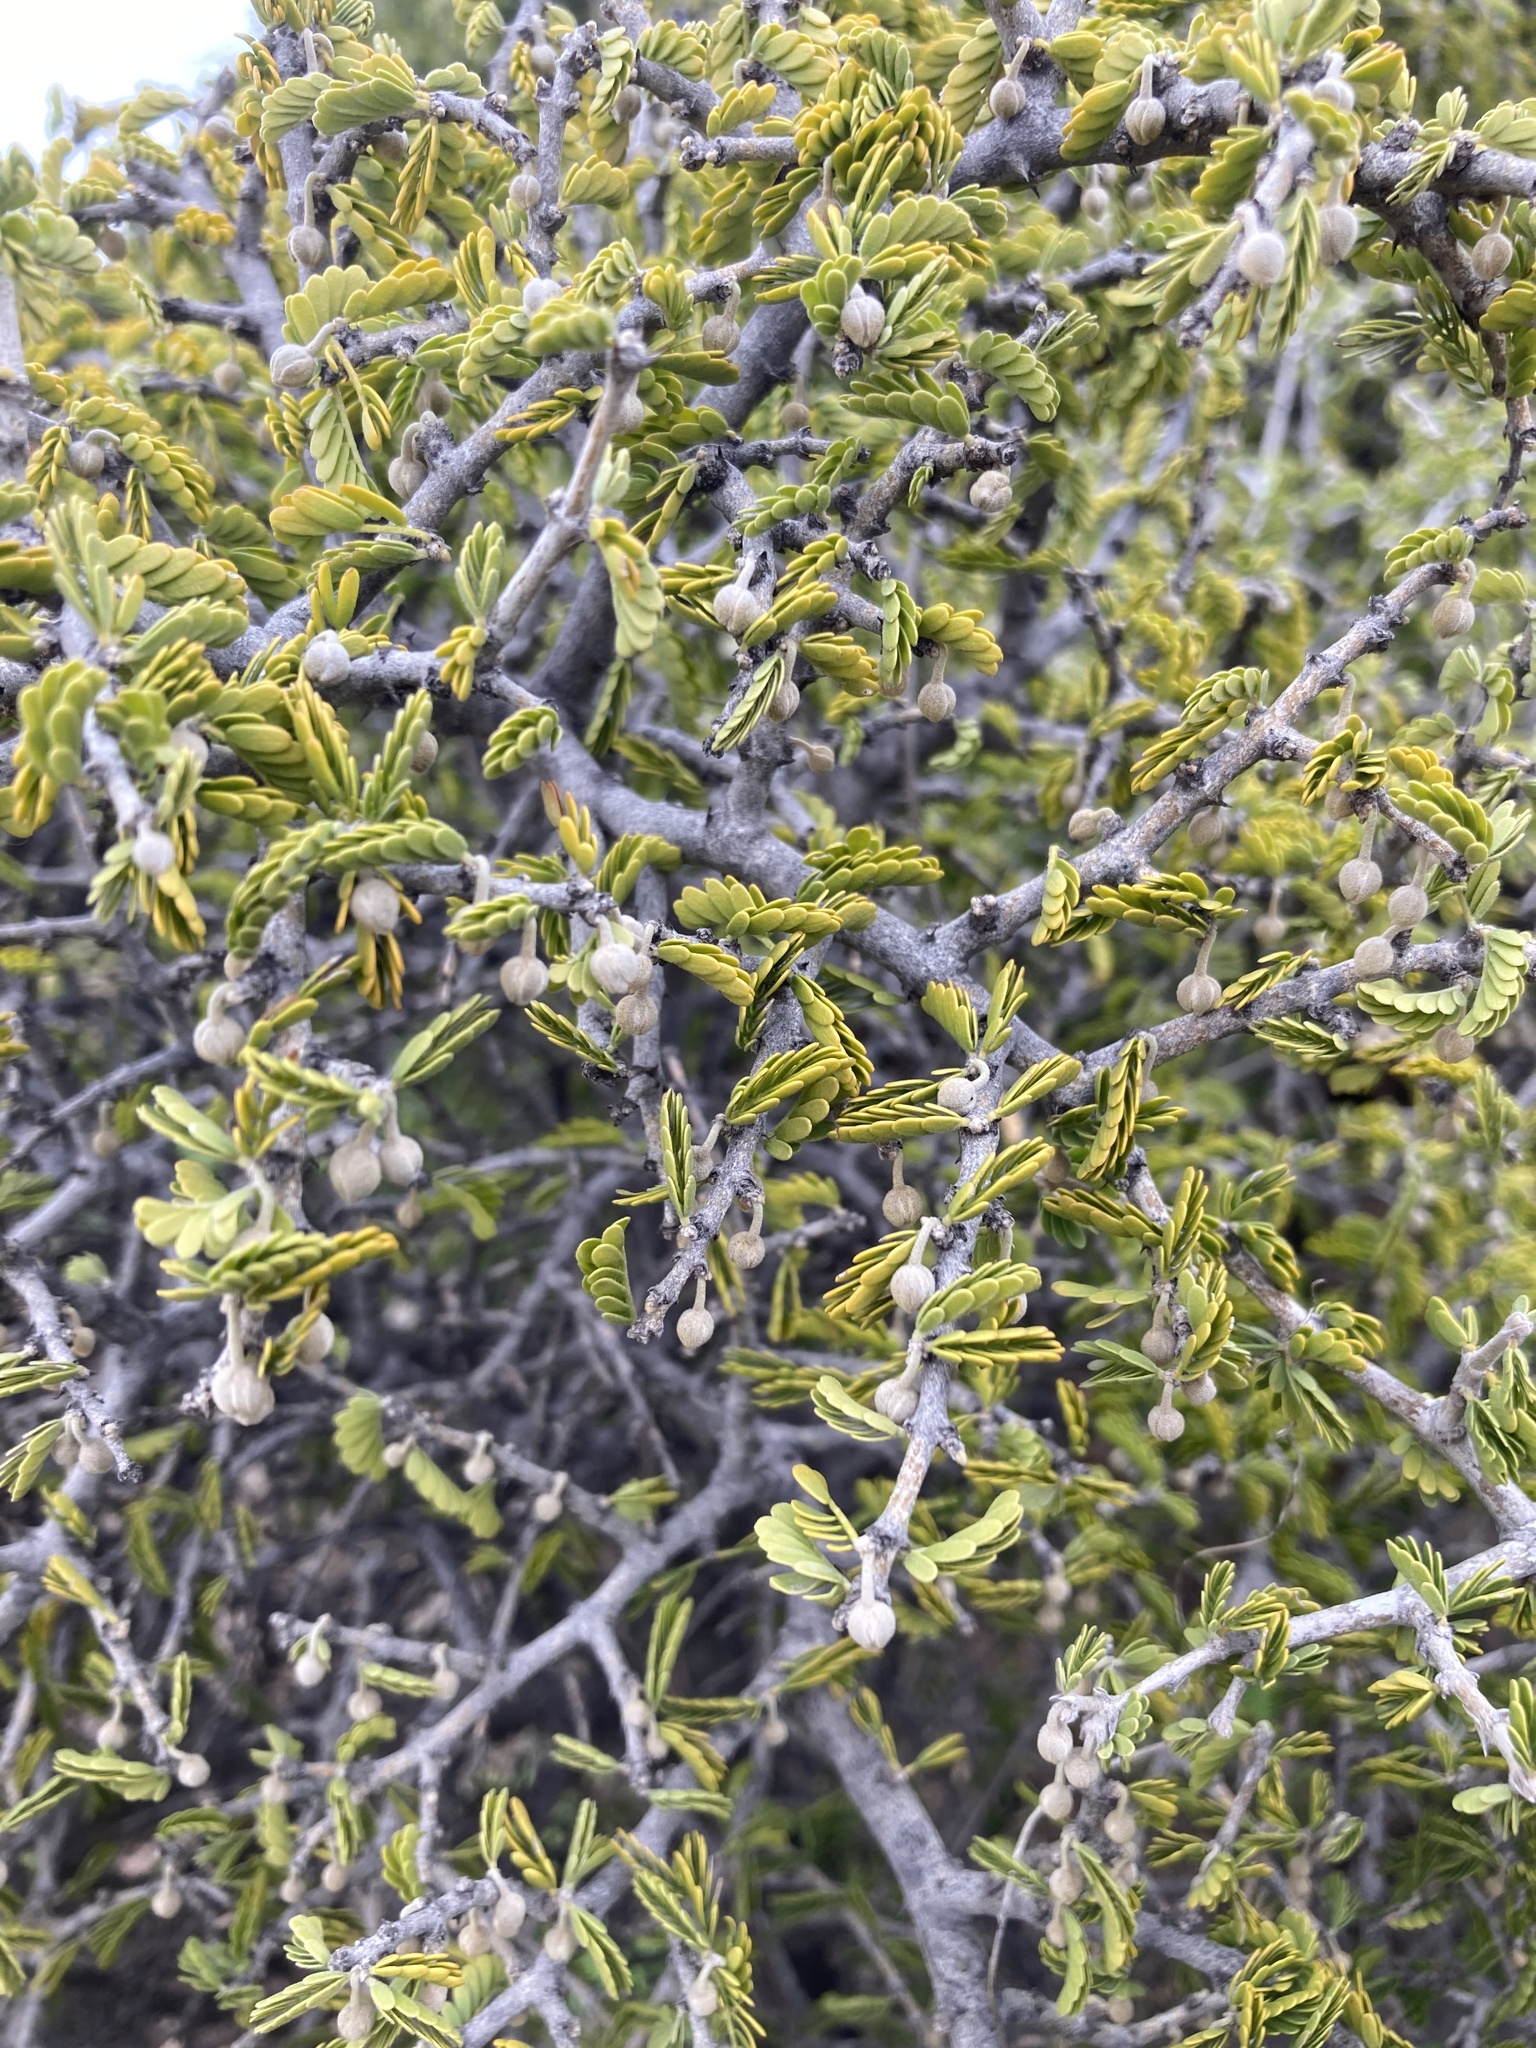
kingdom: Plantae
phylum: Tracheophyta
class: Magnoliopsida
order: Zygophyllales
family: Zygophyllaceae
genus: Porlieria
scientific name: Porlieria chilensis
